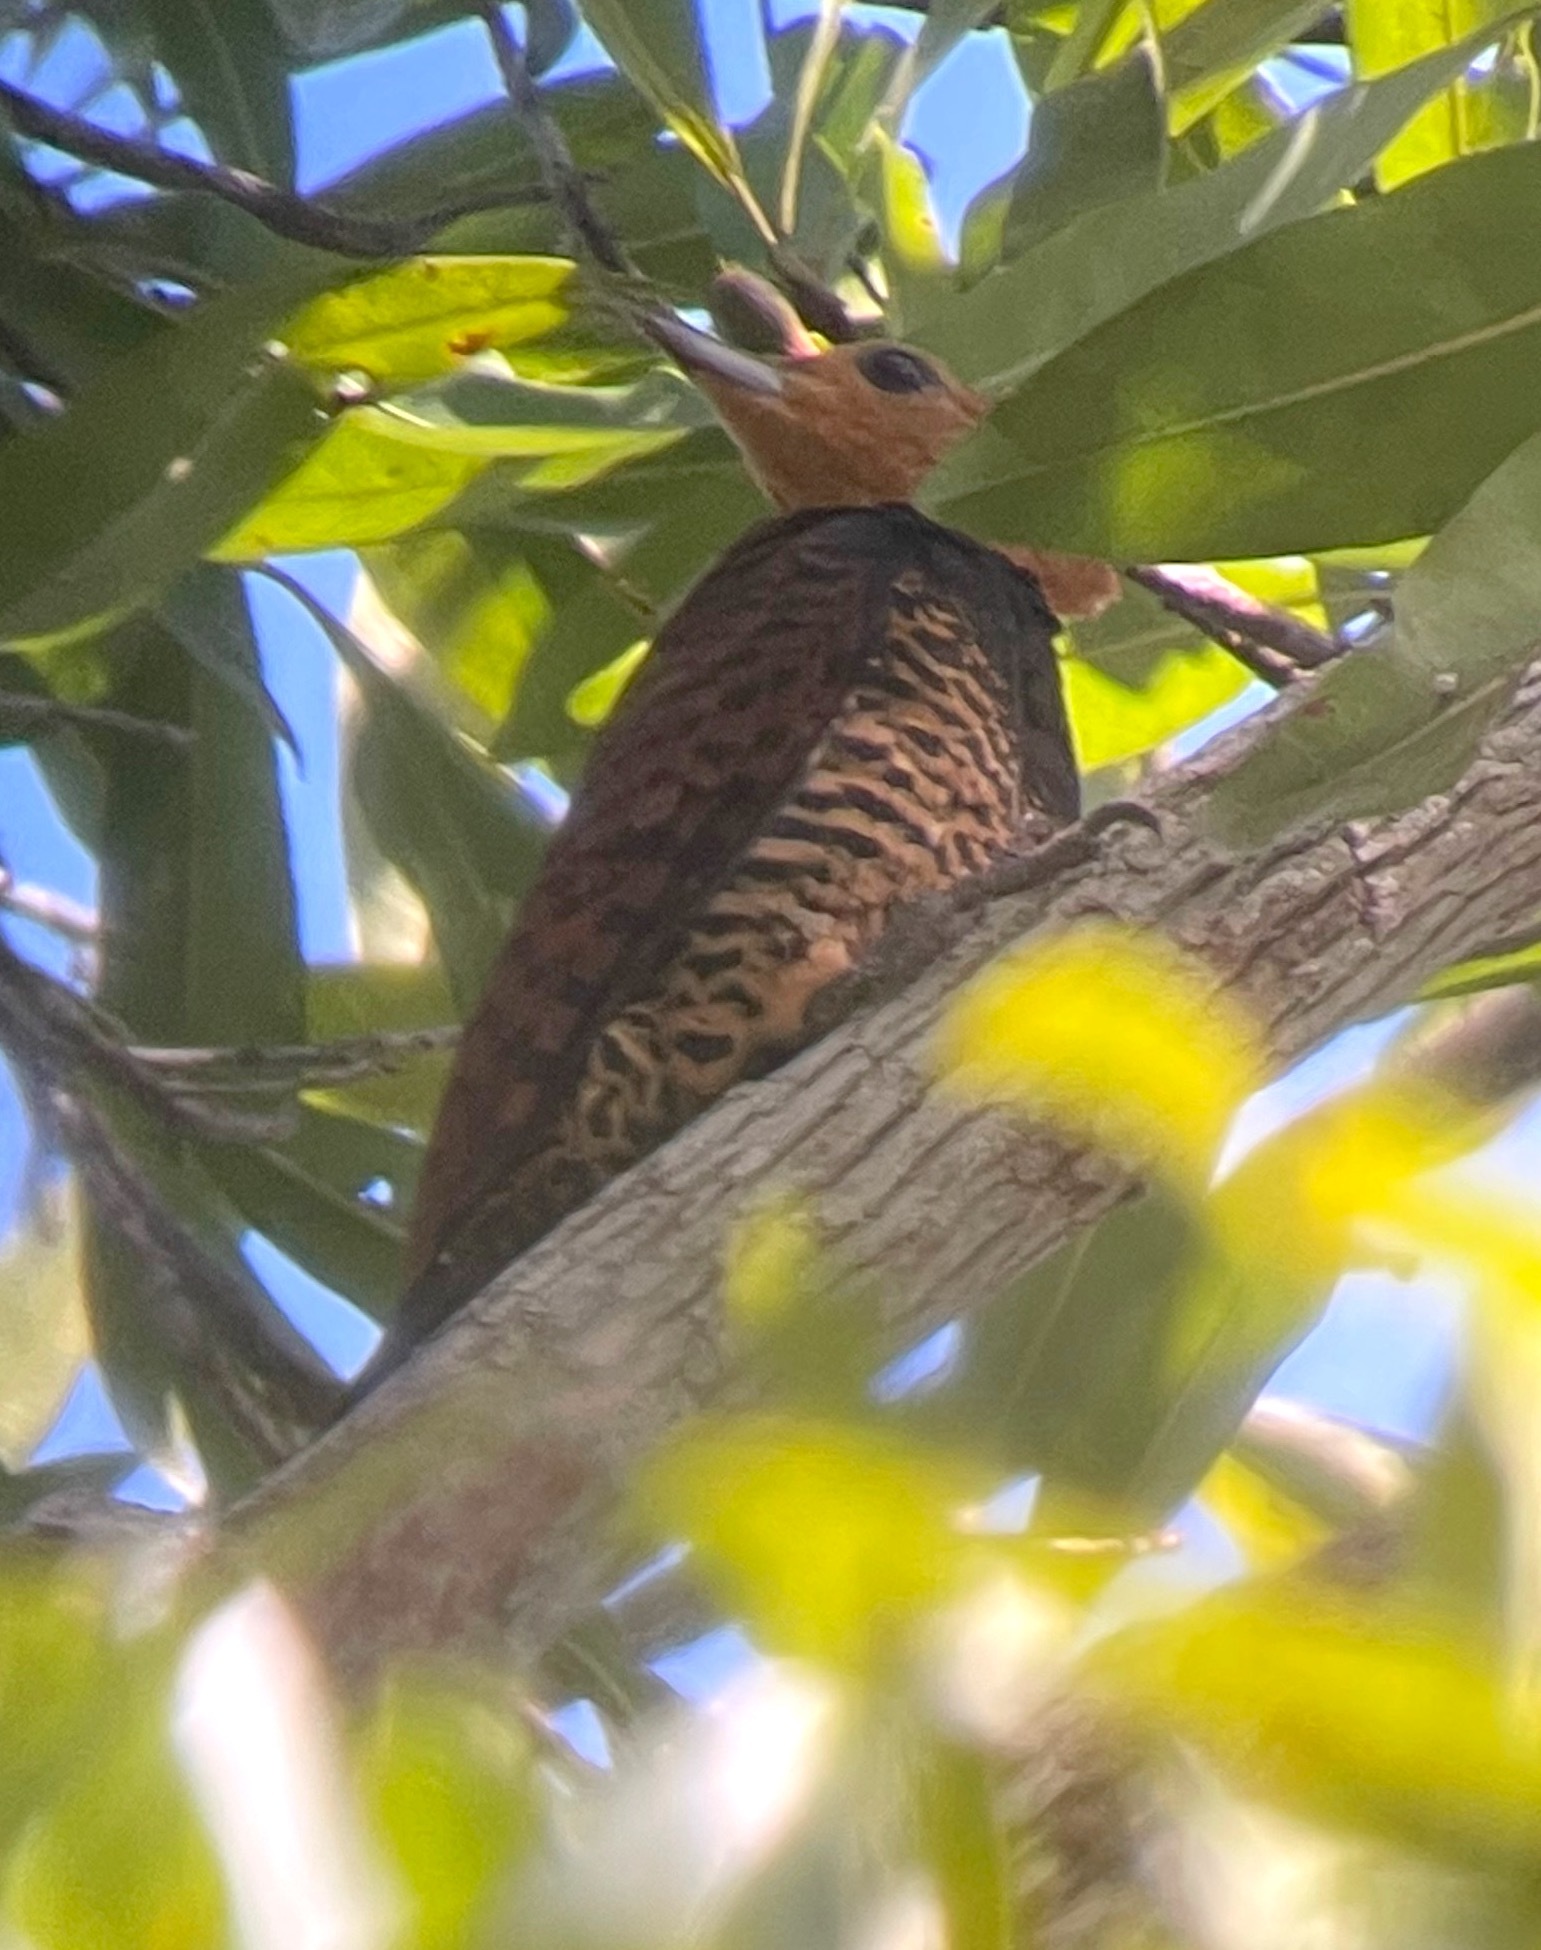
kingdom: Animalia
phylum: Chordata
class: Aves
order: Piciformes
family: Picidae
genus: Celeus
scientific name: Celeus torquatus
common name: Ringed woodpecker
